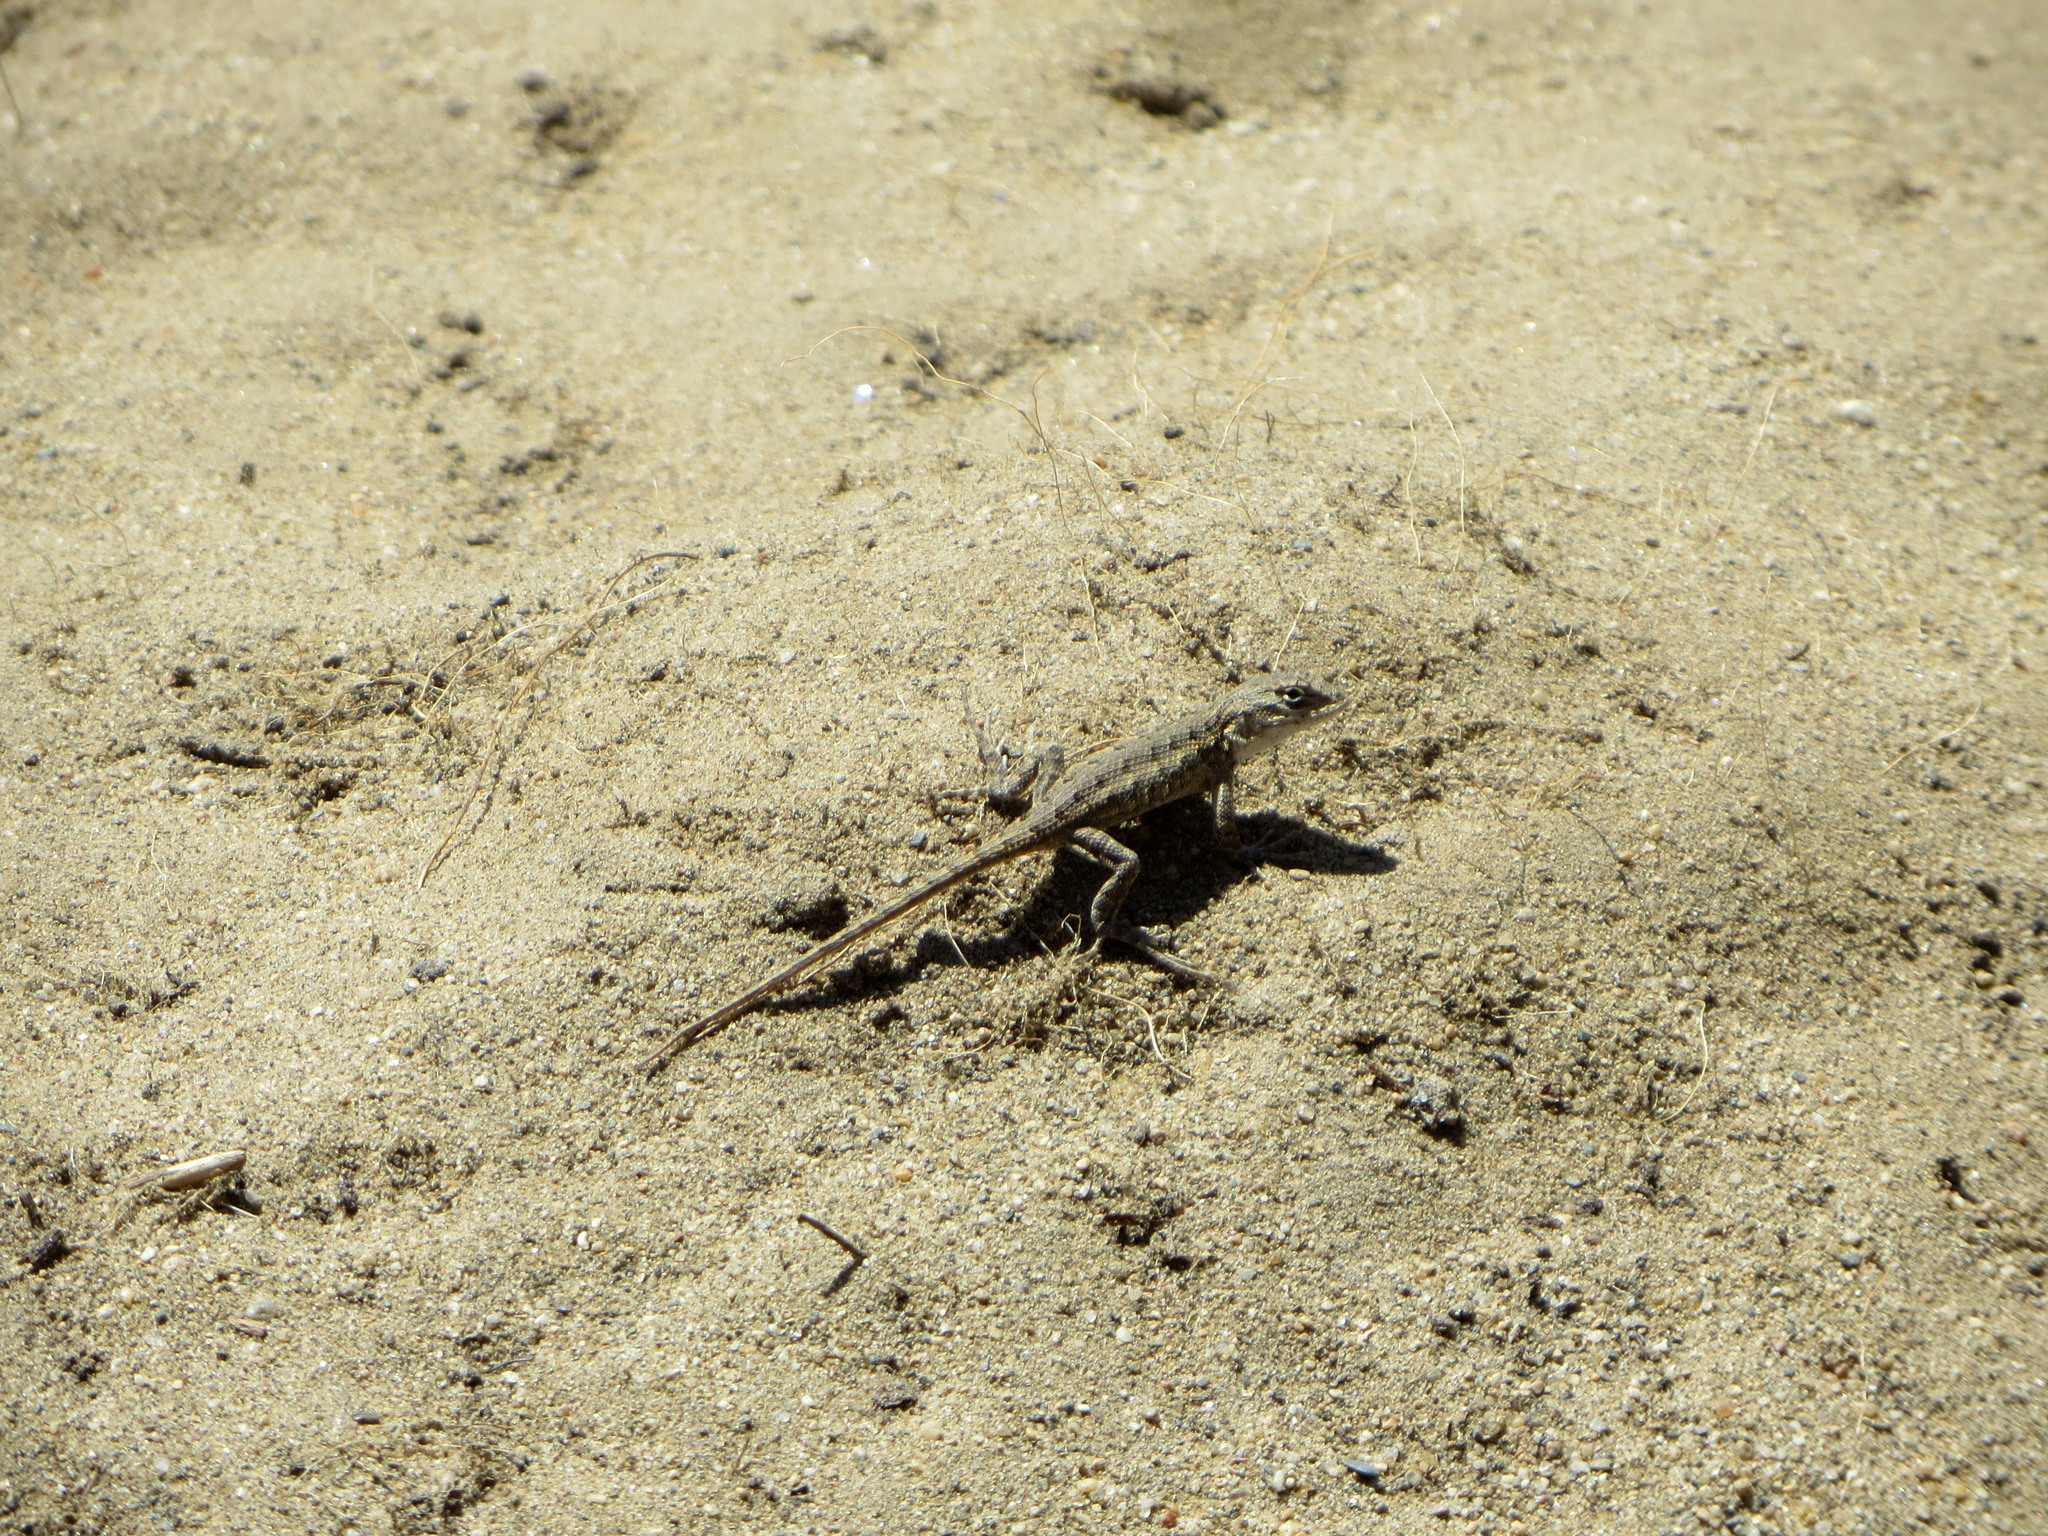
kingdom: Animalia
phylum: Chordata
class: Squamata
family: Phrynosomatidae
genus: Sceloporus
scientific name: Sceloporus occidentalis
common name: Western fence lizard
